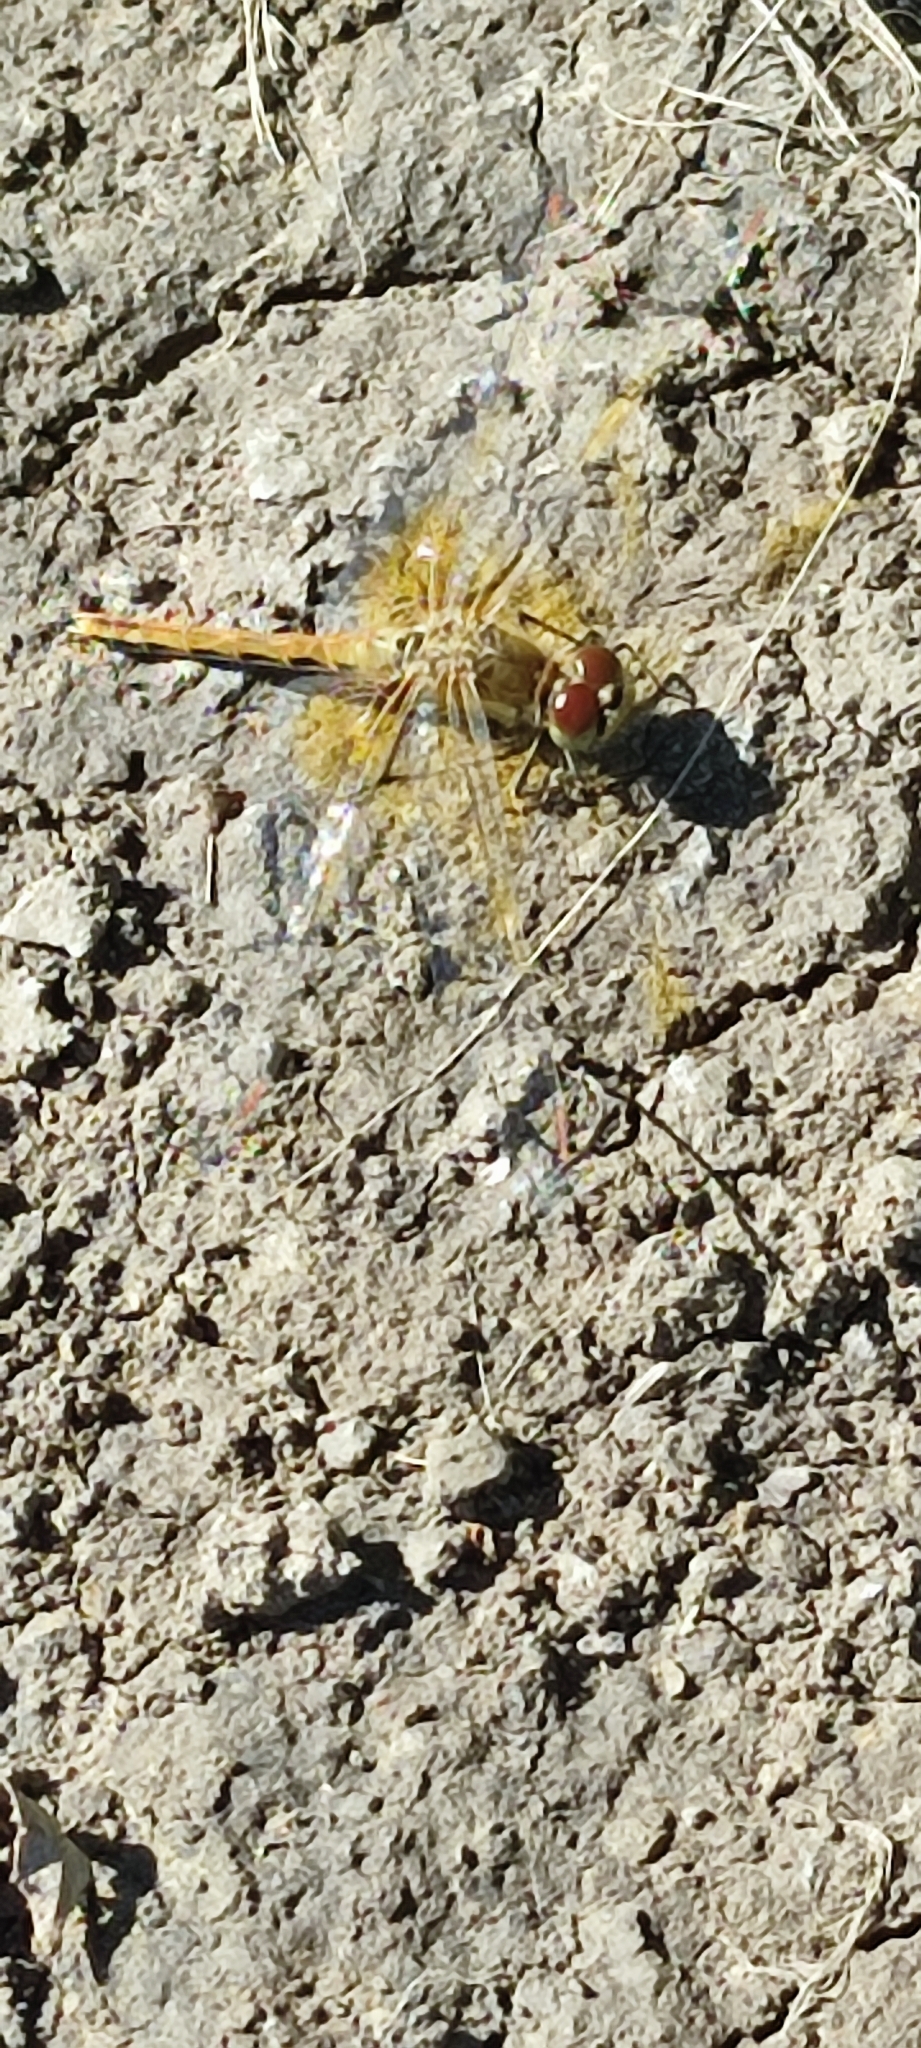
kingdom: Animalia
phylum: Arthropoda
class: Insecta
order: Odonata
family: Libellulidae
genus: Sympetrum
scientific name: Sympetrum flaveolum
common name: Yellow-winged darter
